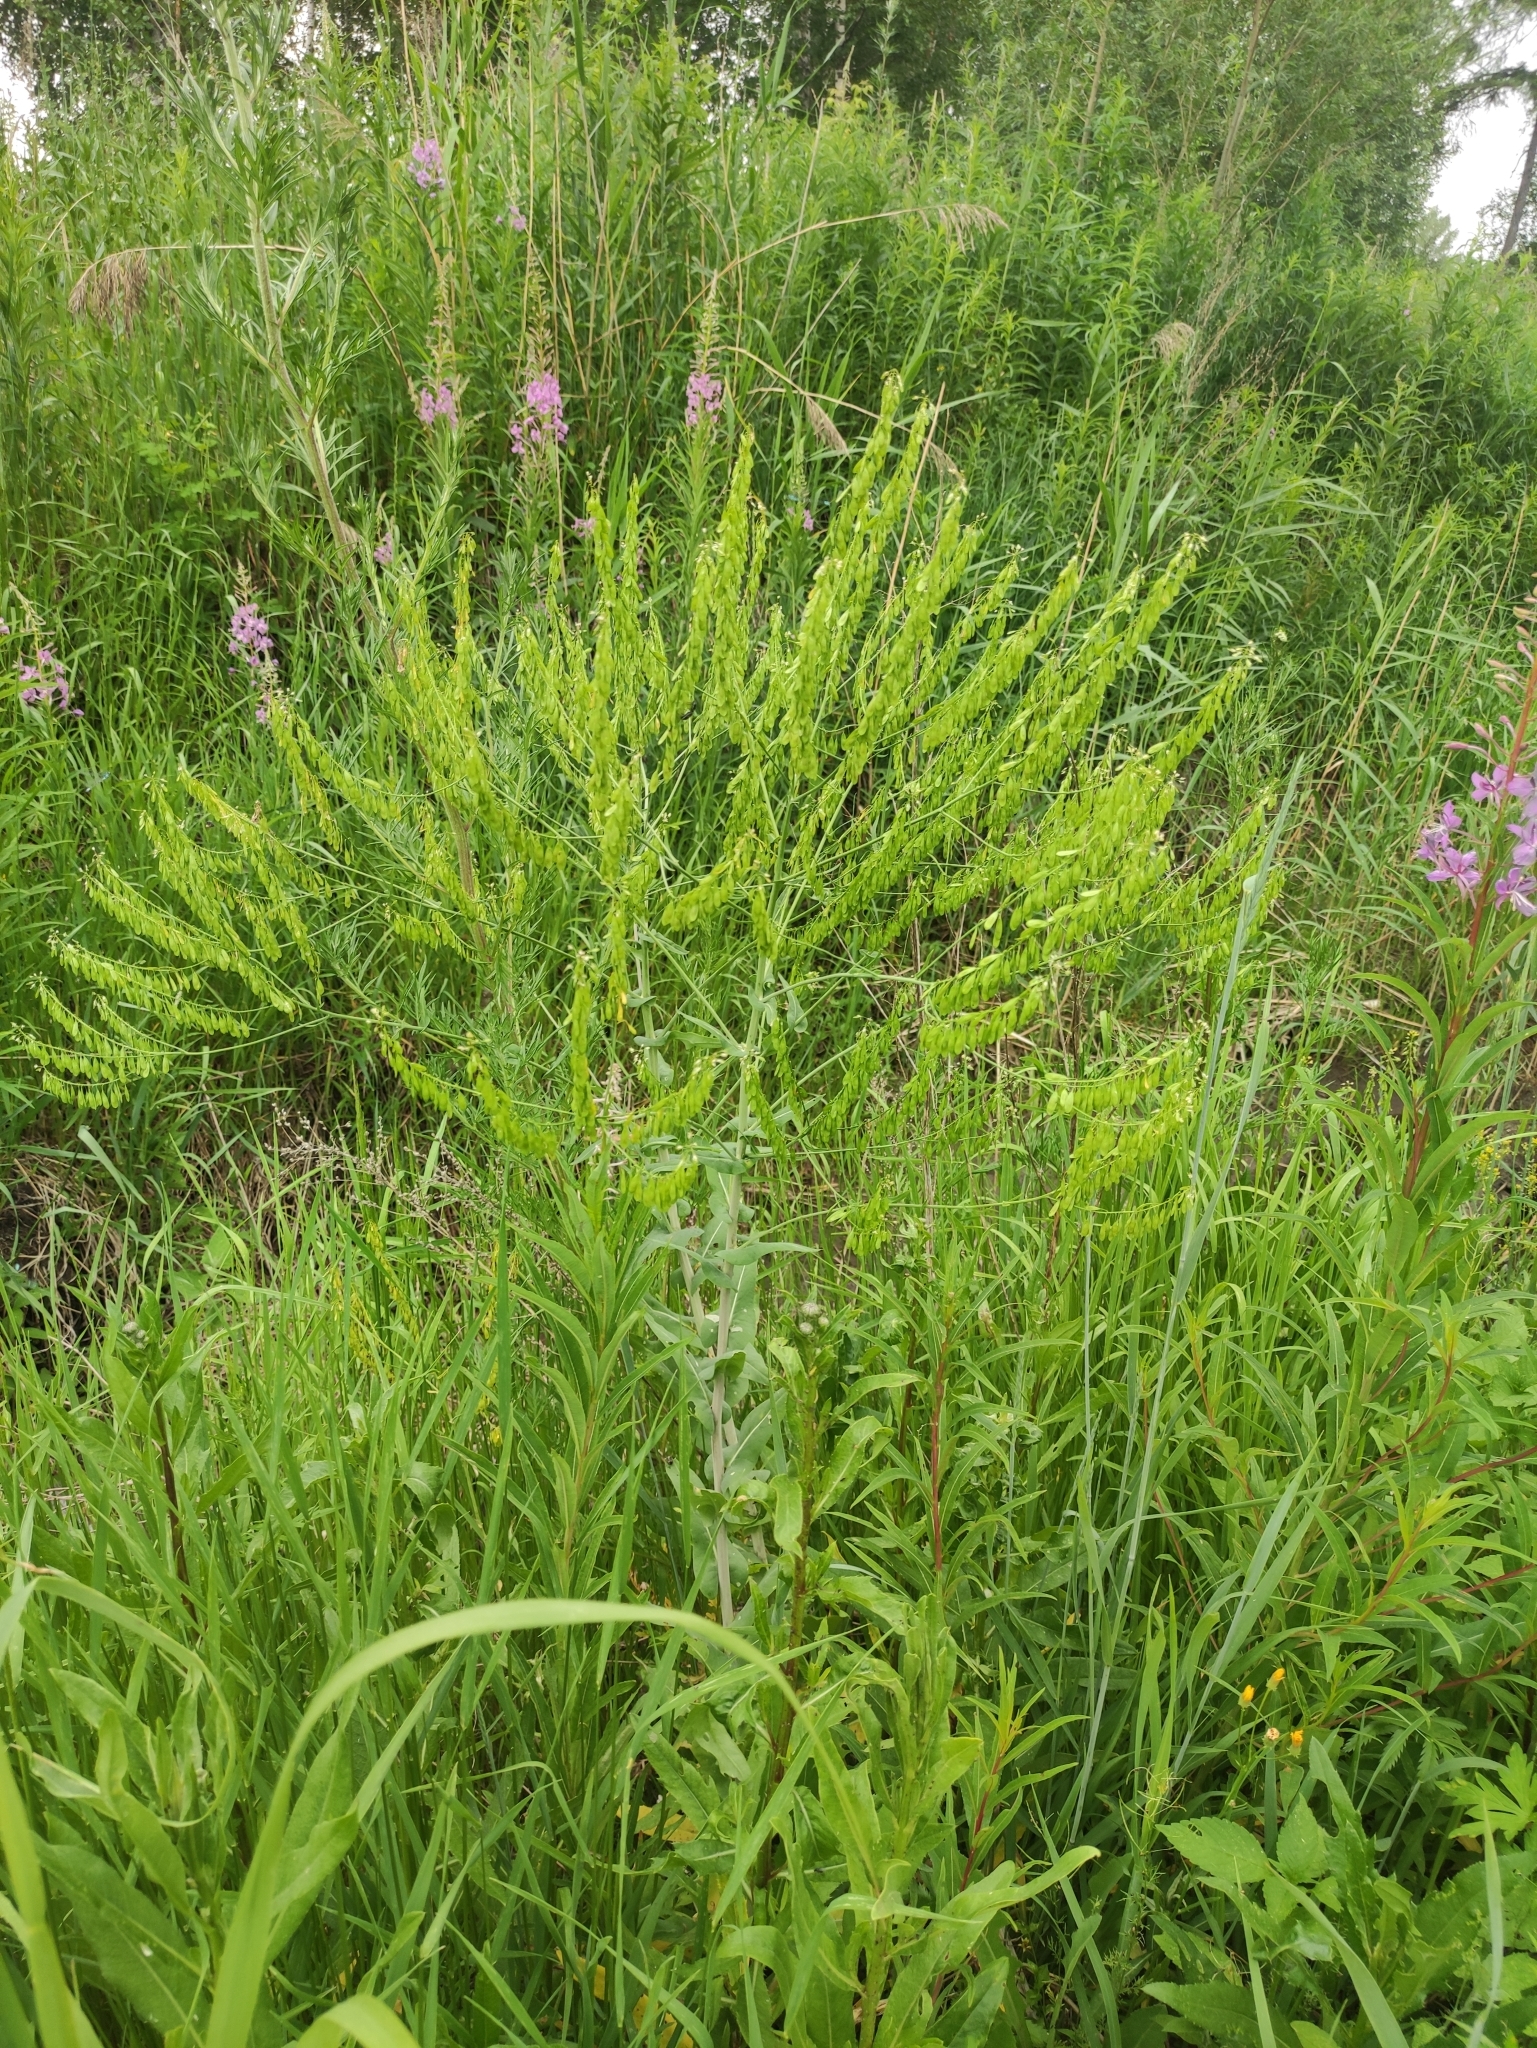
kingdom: Plantae
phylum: Tracheophyta
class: Magnoliopsida
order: Brassicales
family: Brassicaceae
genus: Isatis
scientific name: Isatis tinctoria
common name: Woad
